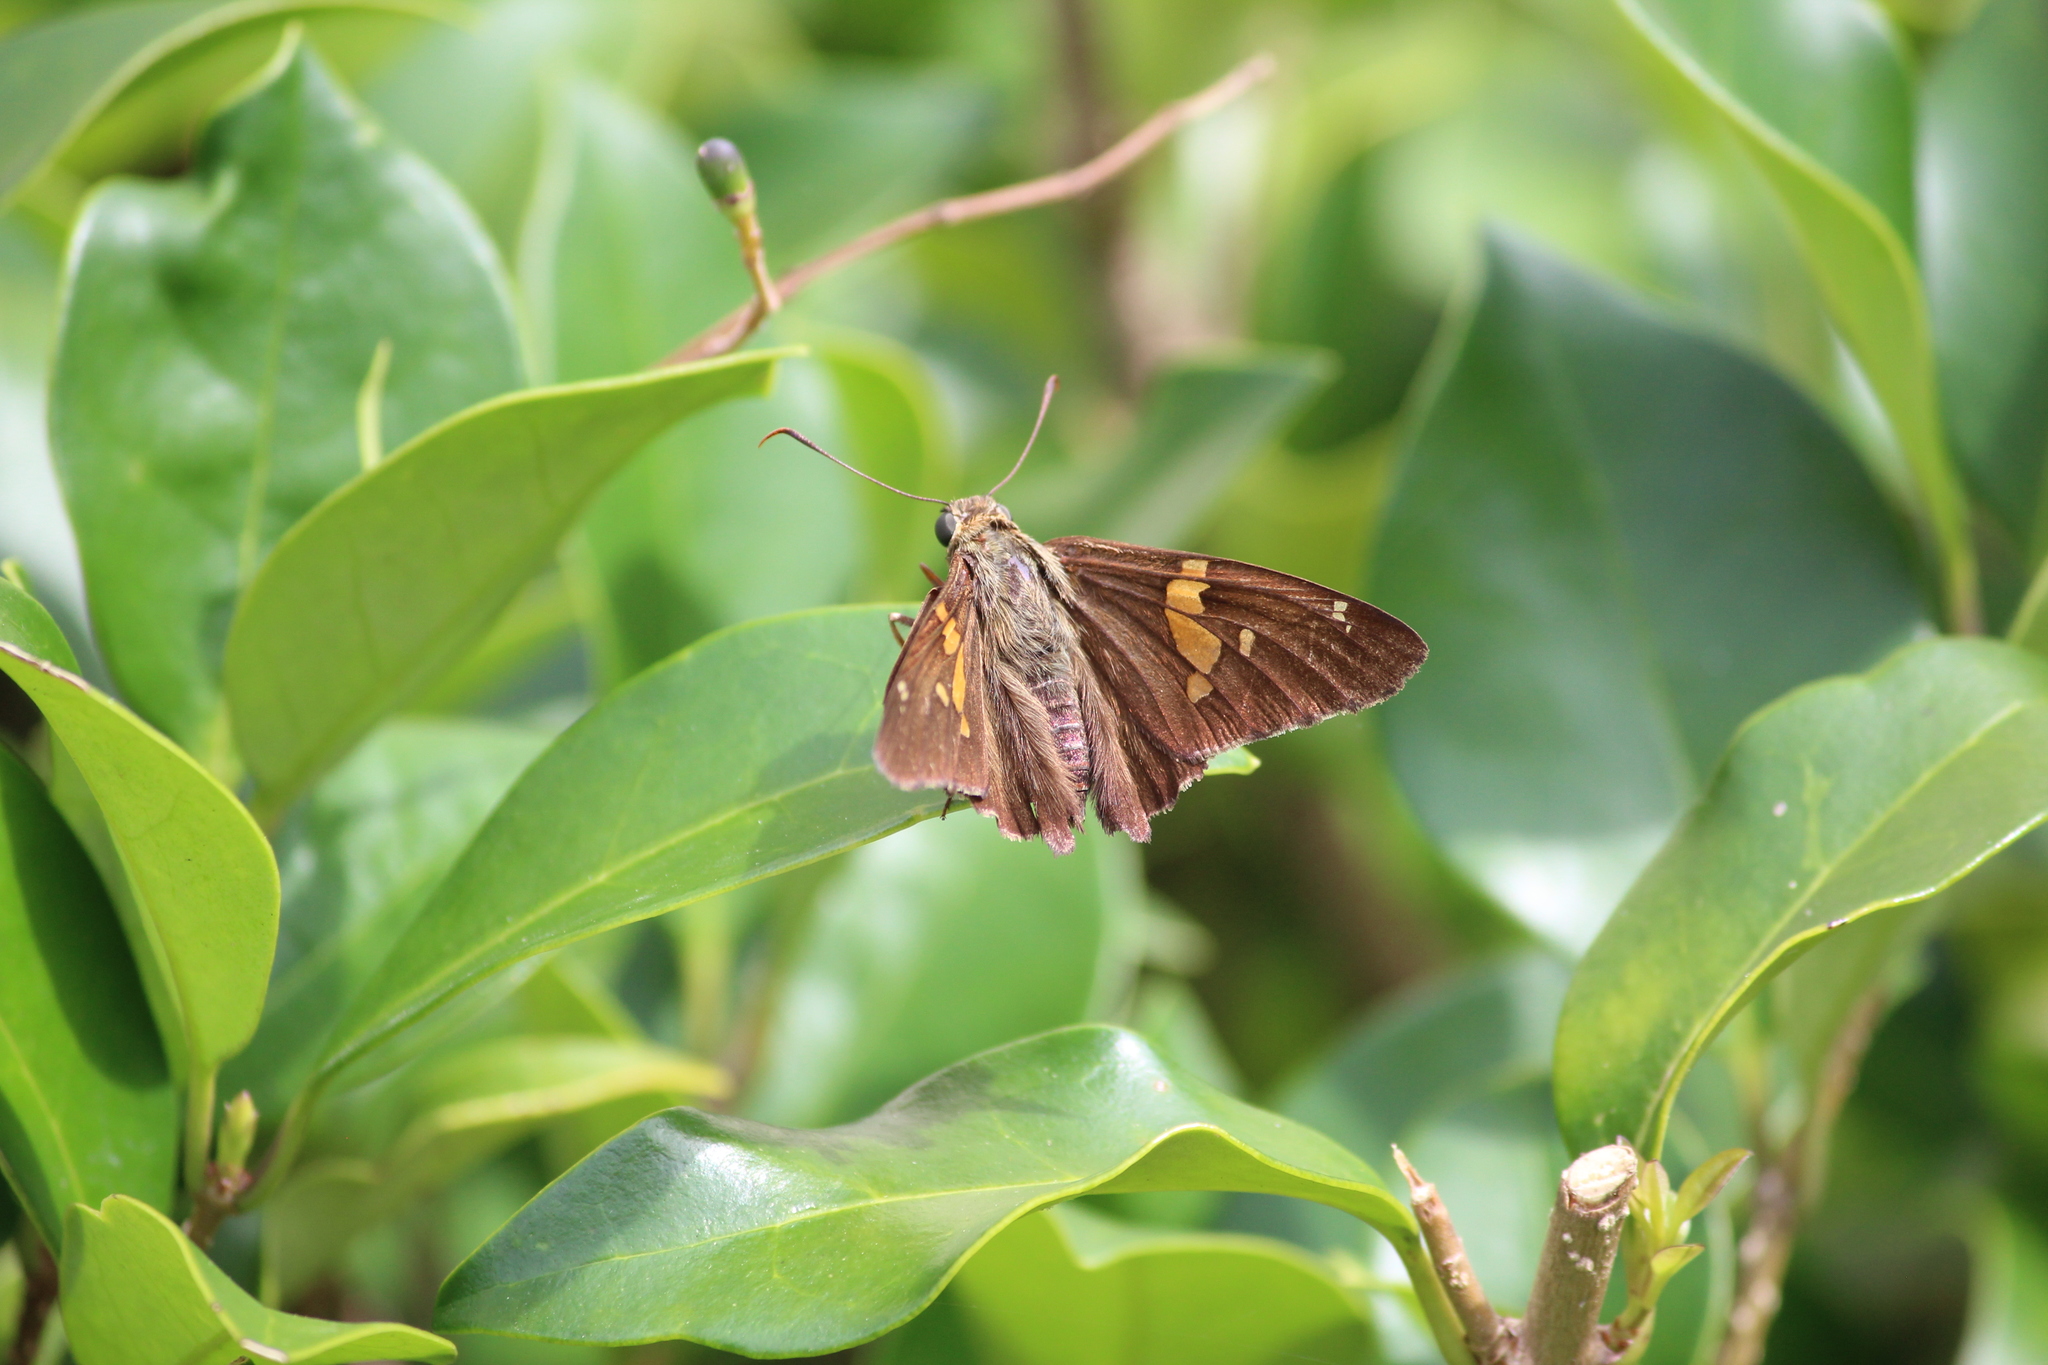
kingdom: Animalia
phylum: Arthropoda
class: Insecta
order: Lepidoptera
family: Hesperiidae
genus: Epargyreus
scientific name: Epargyreus clarus
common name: Silver-spotted skipper
